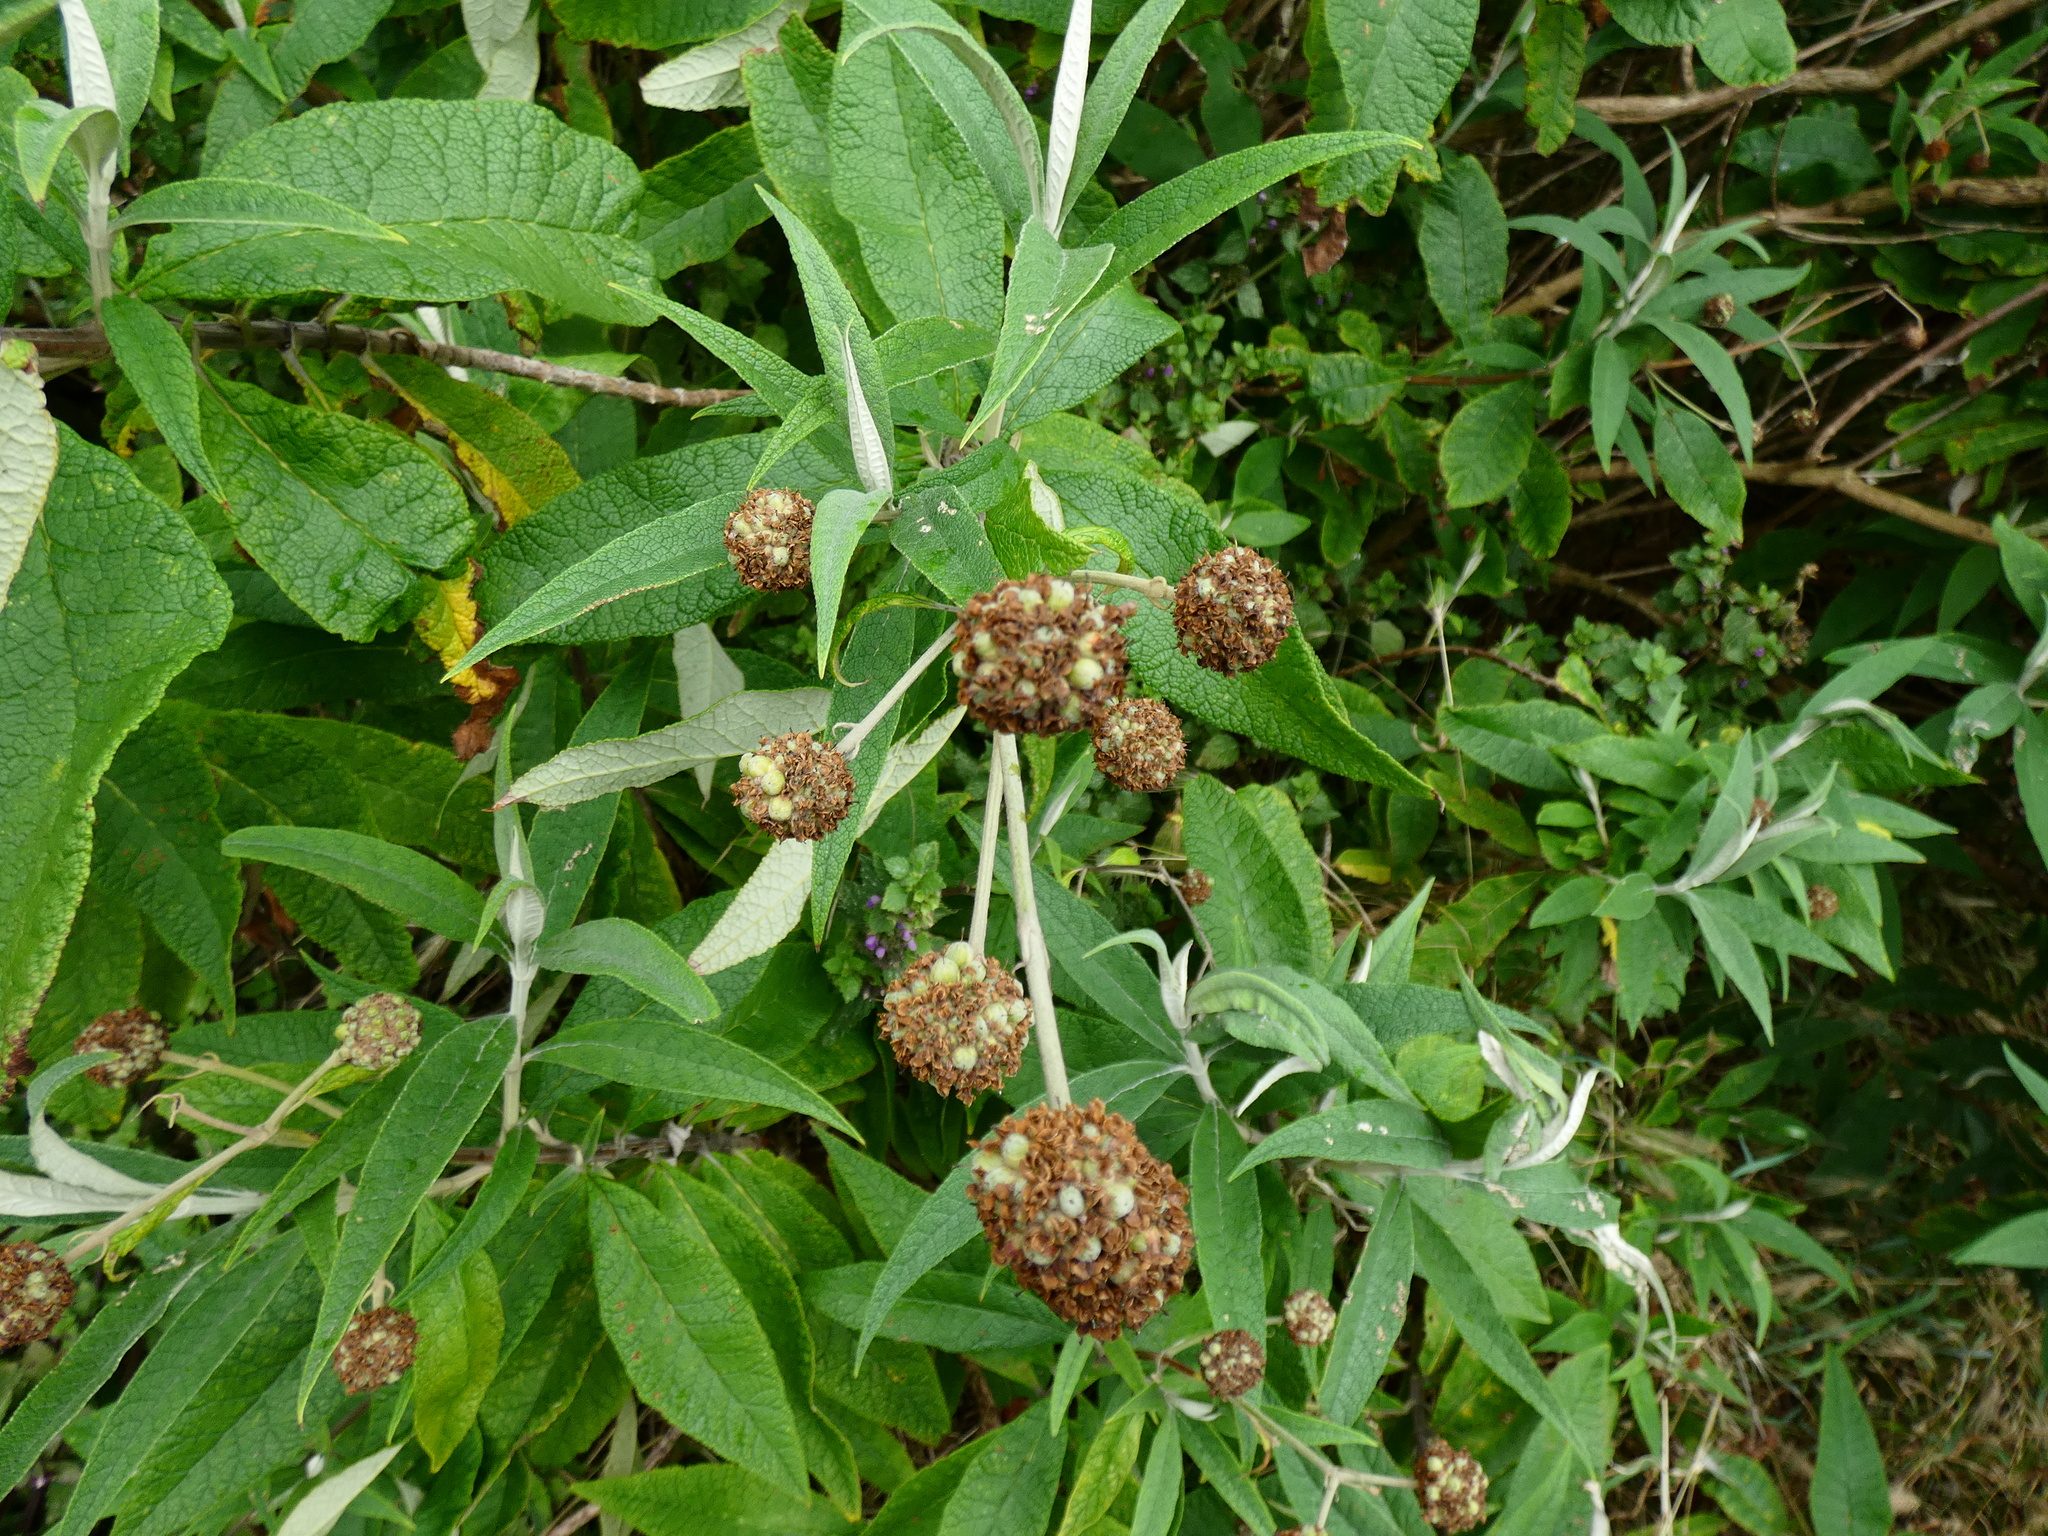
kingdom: Plantae
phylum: Tracheophyta
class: Magnoliopsida
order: Lamiales
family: Scrophulariaceae
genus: Buddleja
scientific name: Buddleja globosa
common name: Orange-ball-tree
